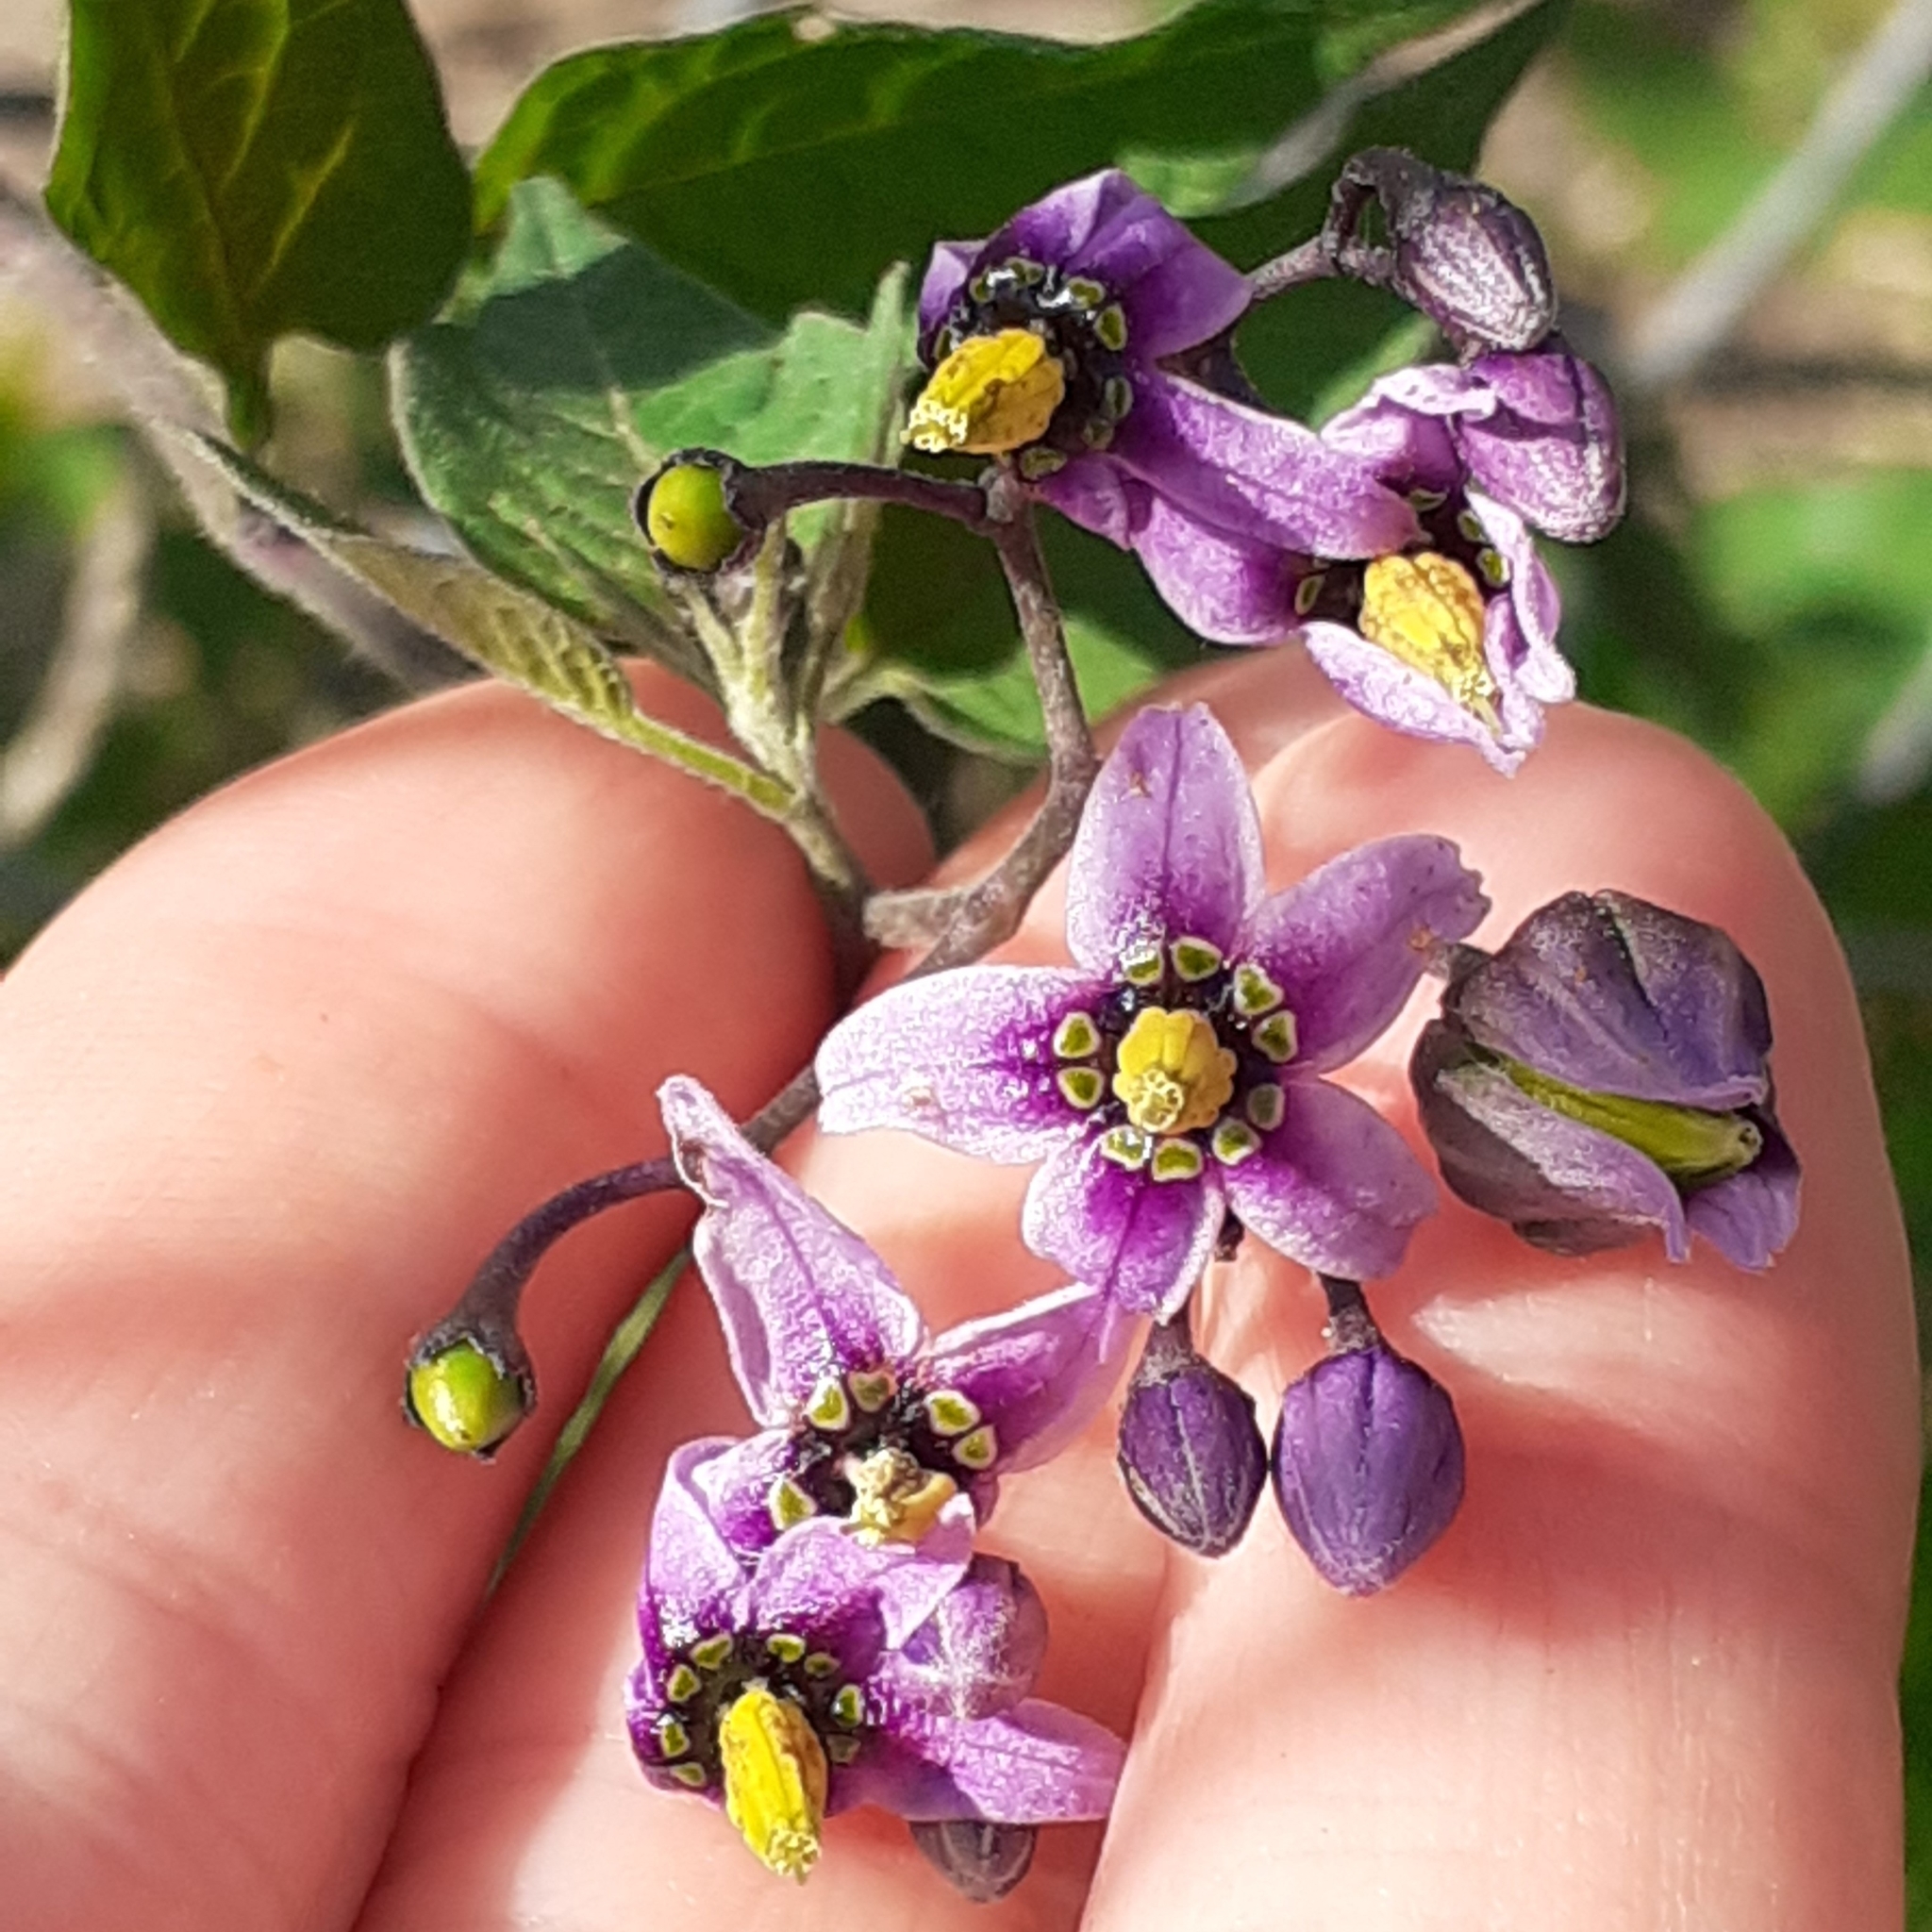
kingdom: Plantae
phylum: Tracheophyta
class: Magnoliopsida
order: Solanales
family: Solanaceae
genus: Solanum
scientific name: Solanum dulcamara
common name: Climbing nightshade
